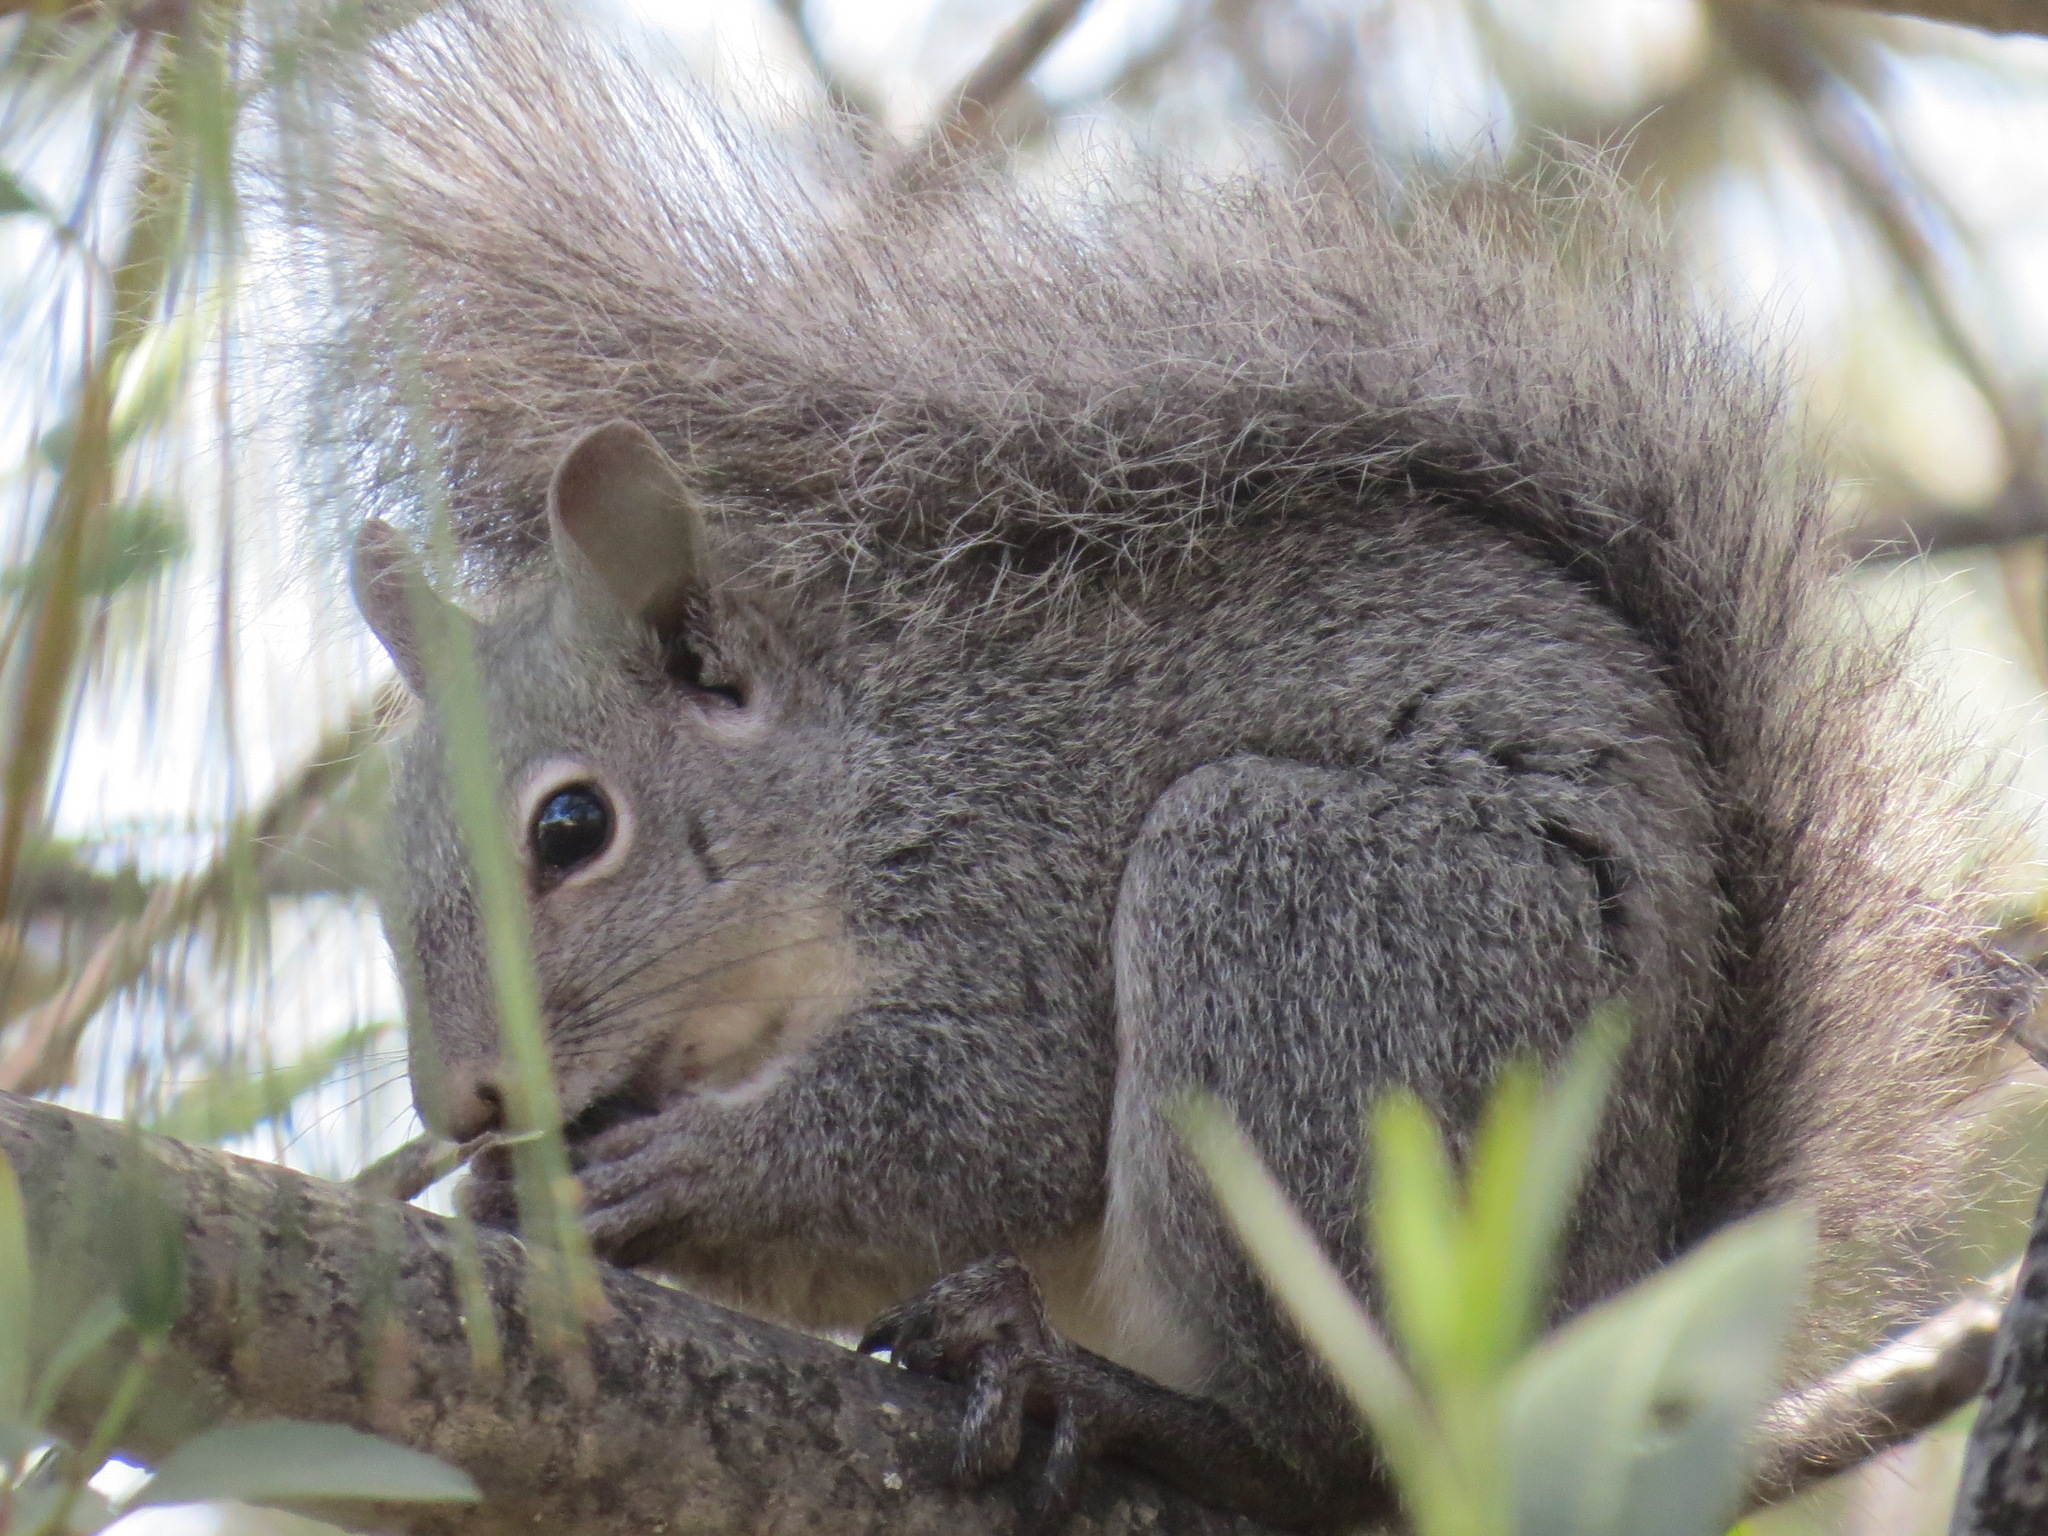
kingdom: Animalia
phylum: Chordata
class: Mammalia
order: Rodentia
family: Sciuridae
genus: Sciurus
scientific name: Sciurus griseus
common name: Western gray squirrel
